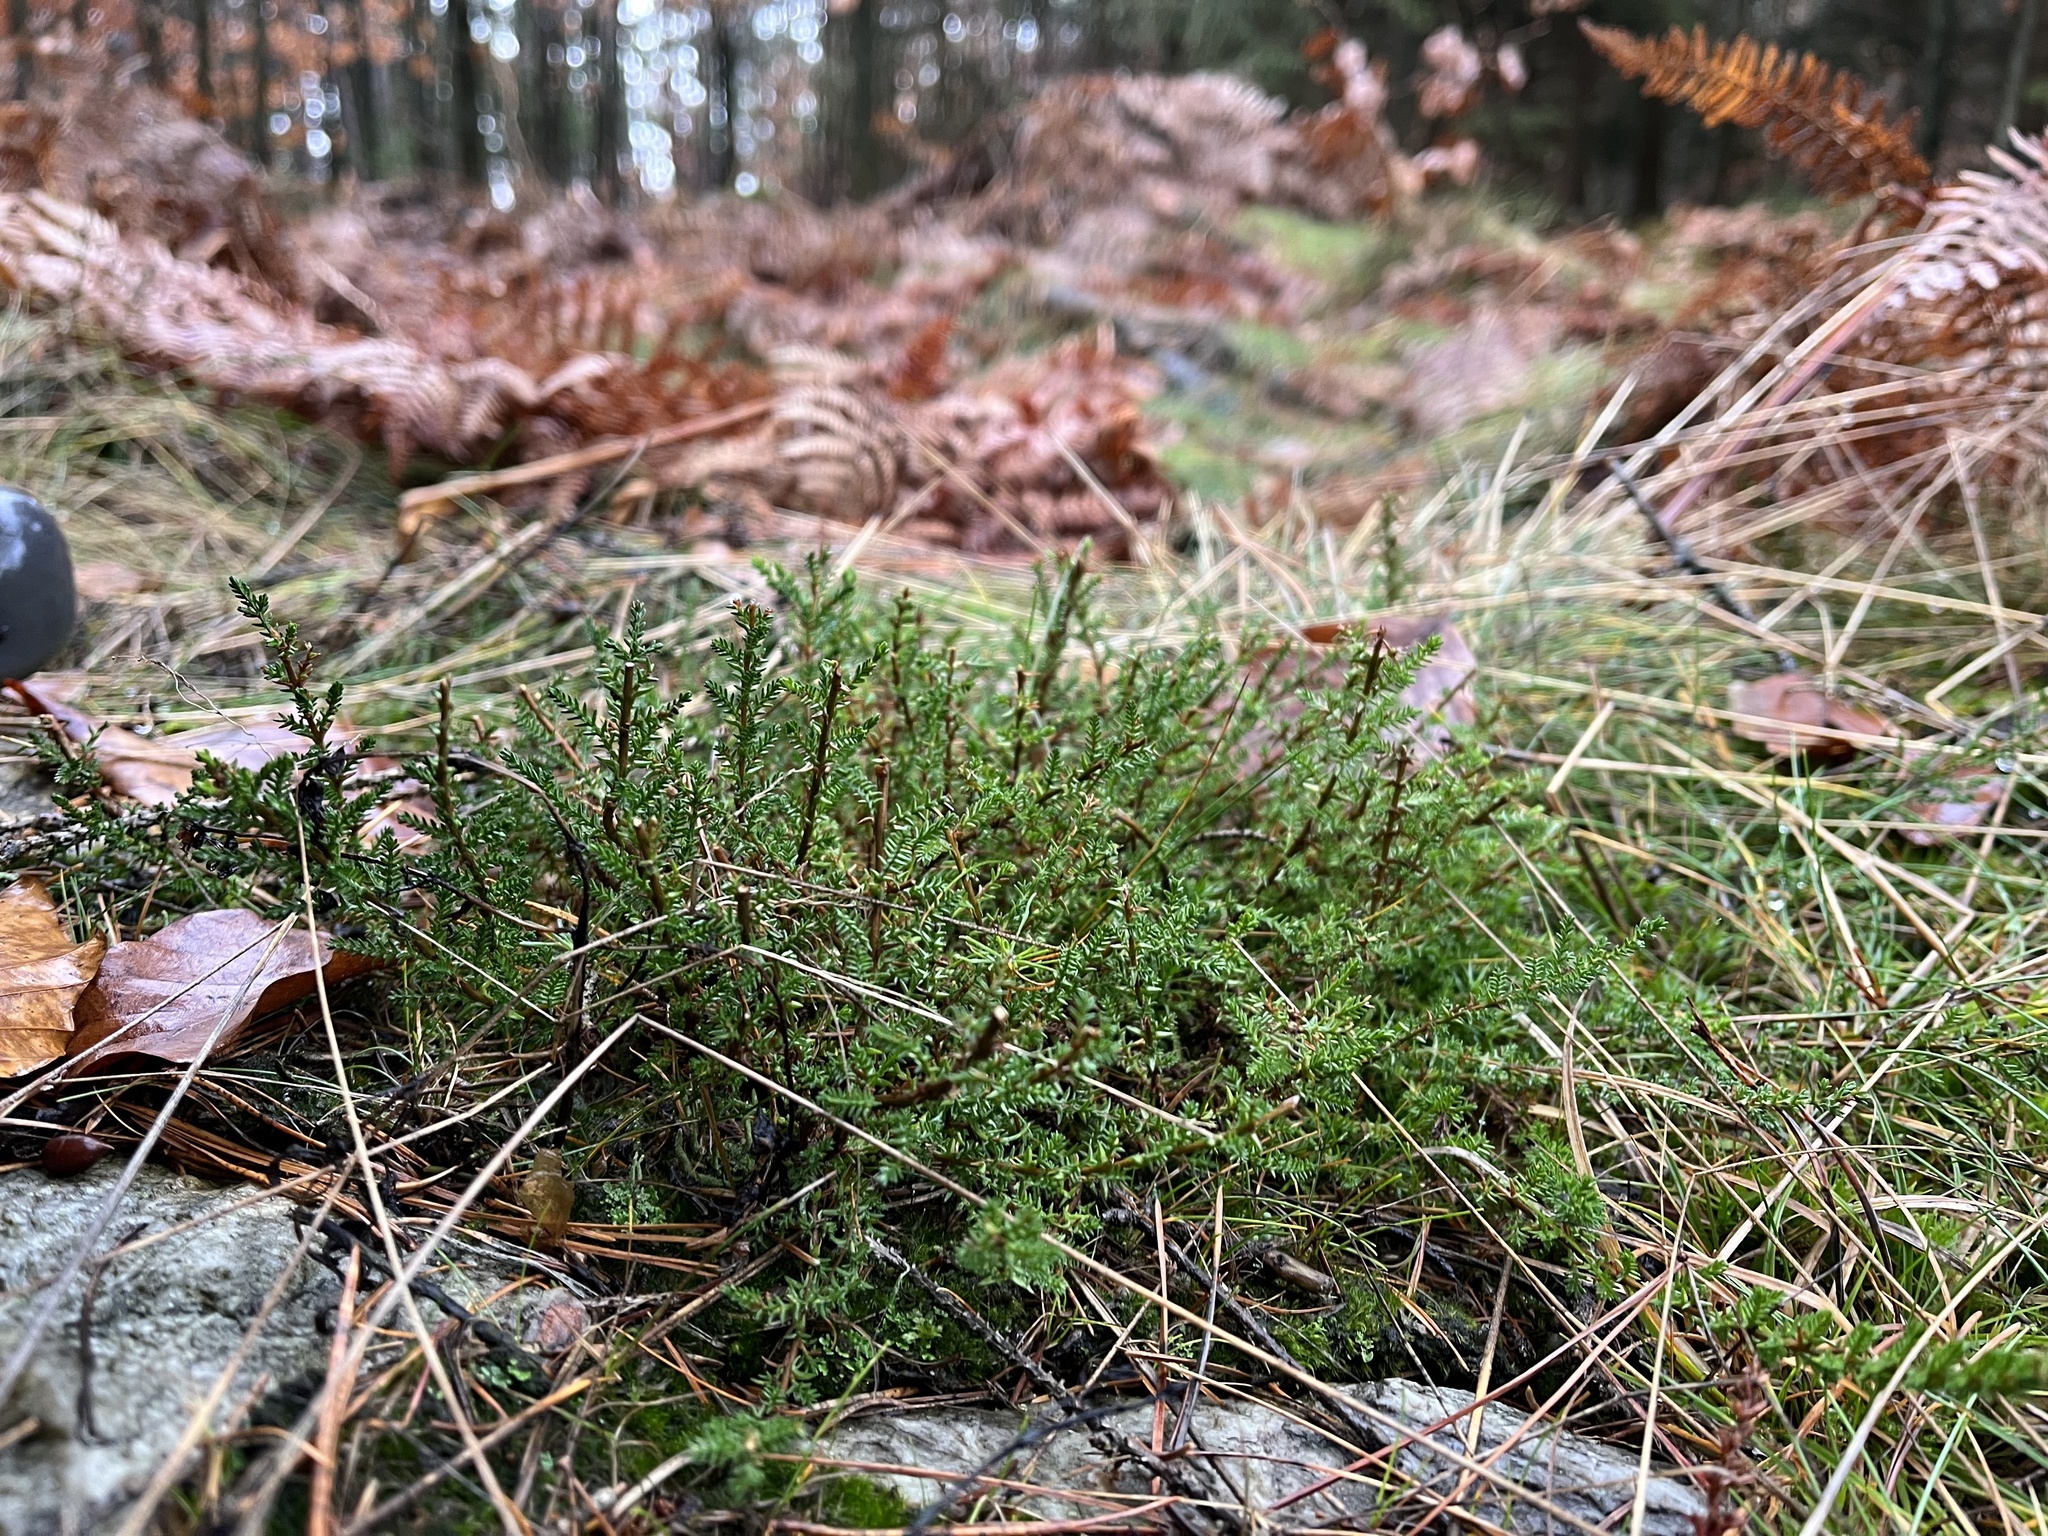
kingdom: Plantae
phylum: Tracheophyta
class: Magnoliopsida
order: Ericales
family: Ericaceae
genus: Calluna
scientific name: Calluna vulgaris
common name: Heather
